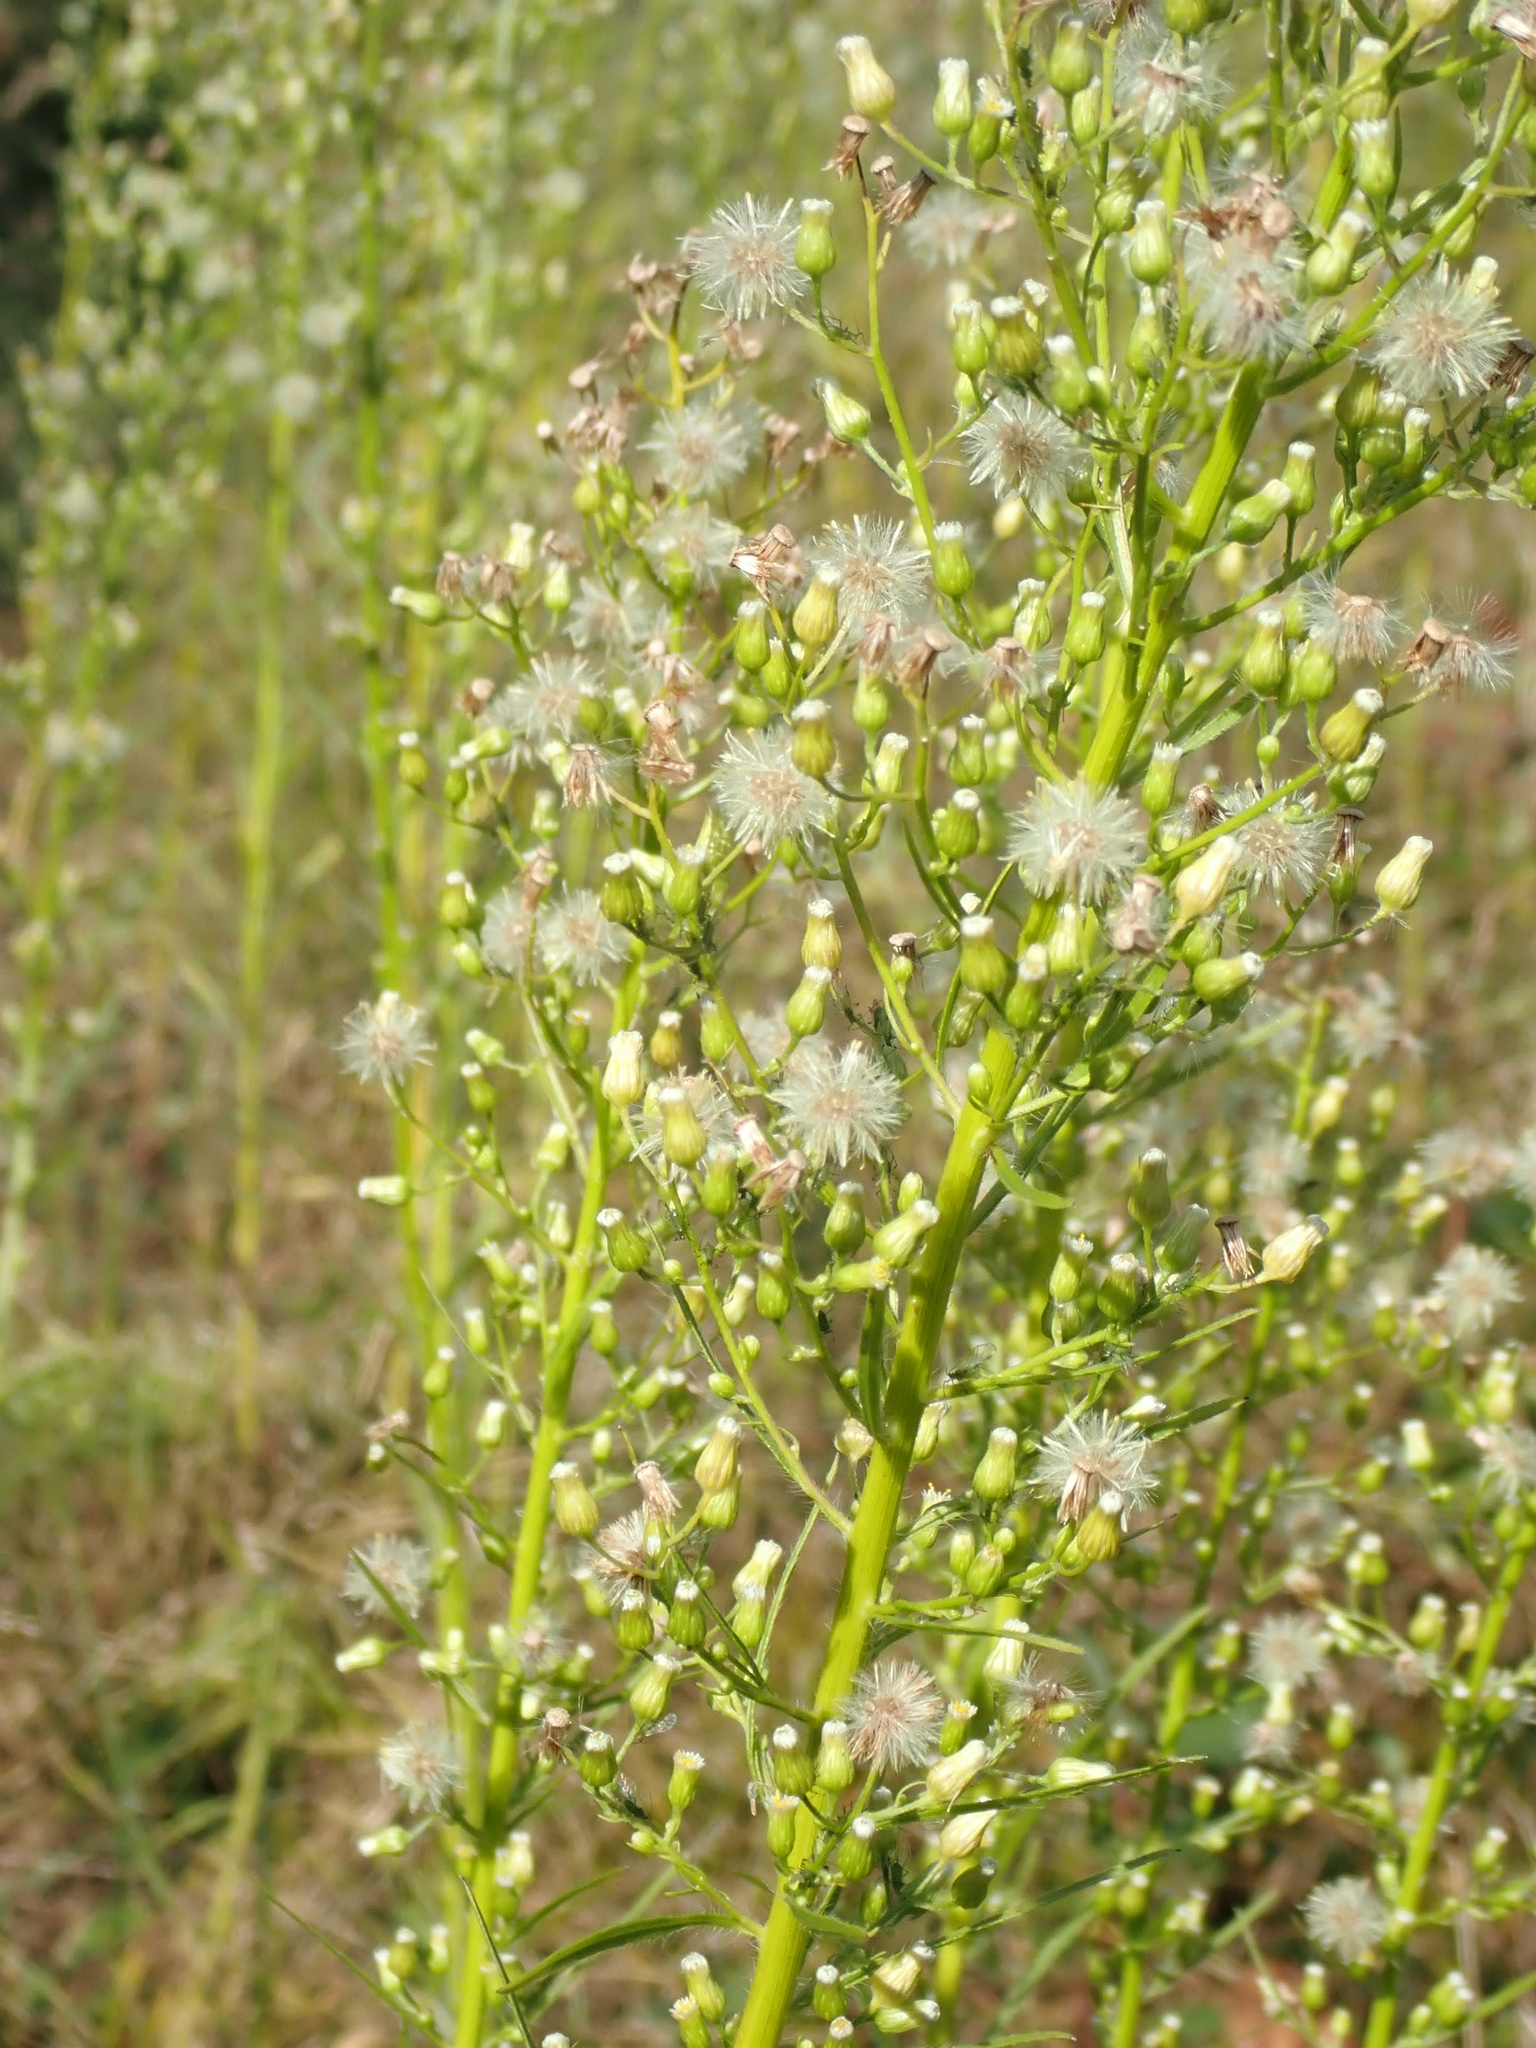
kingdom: Plantae
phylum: Tracheophyta
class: Magnoliopsida
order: Asterales
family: Asteraceae
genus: Erigeron
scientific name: Erigeron canadensis
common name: Canadian fleabane
